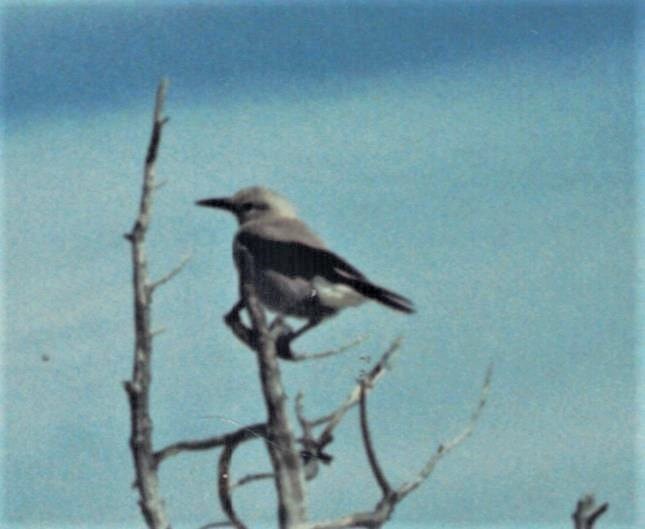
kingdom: Animalia
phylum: Chordata
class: Aves
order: Passeriformes
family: Corvidae
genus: Nucifraga
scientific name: Nucifraga columbiana
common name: Clark's nutcracker
